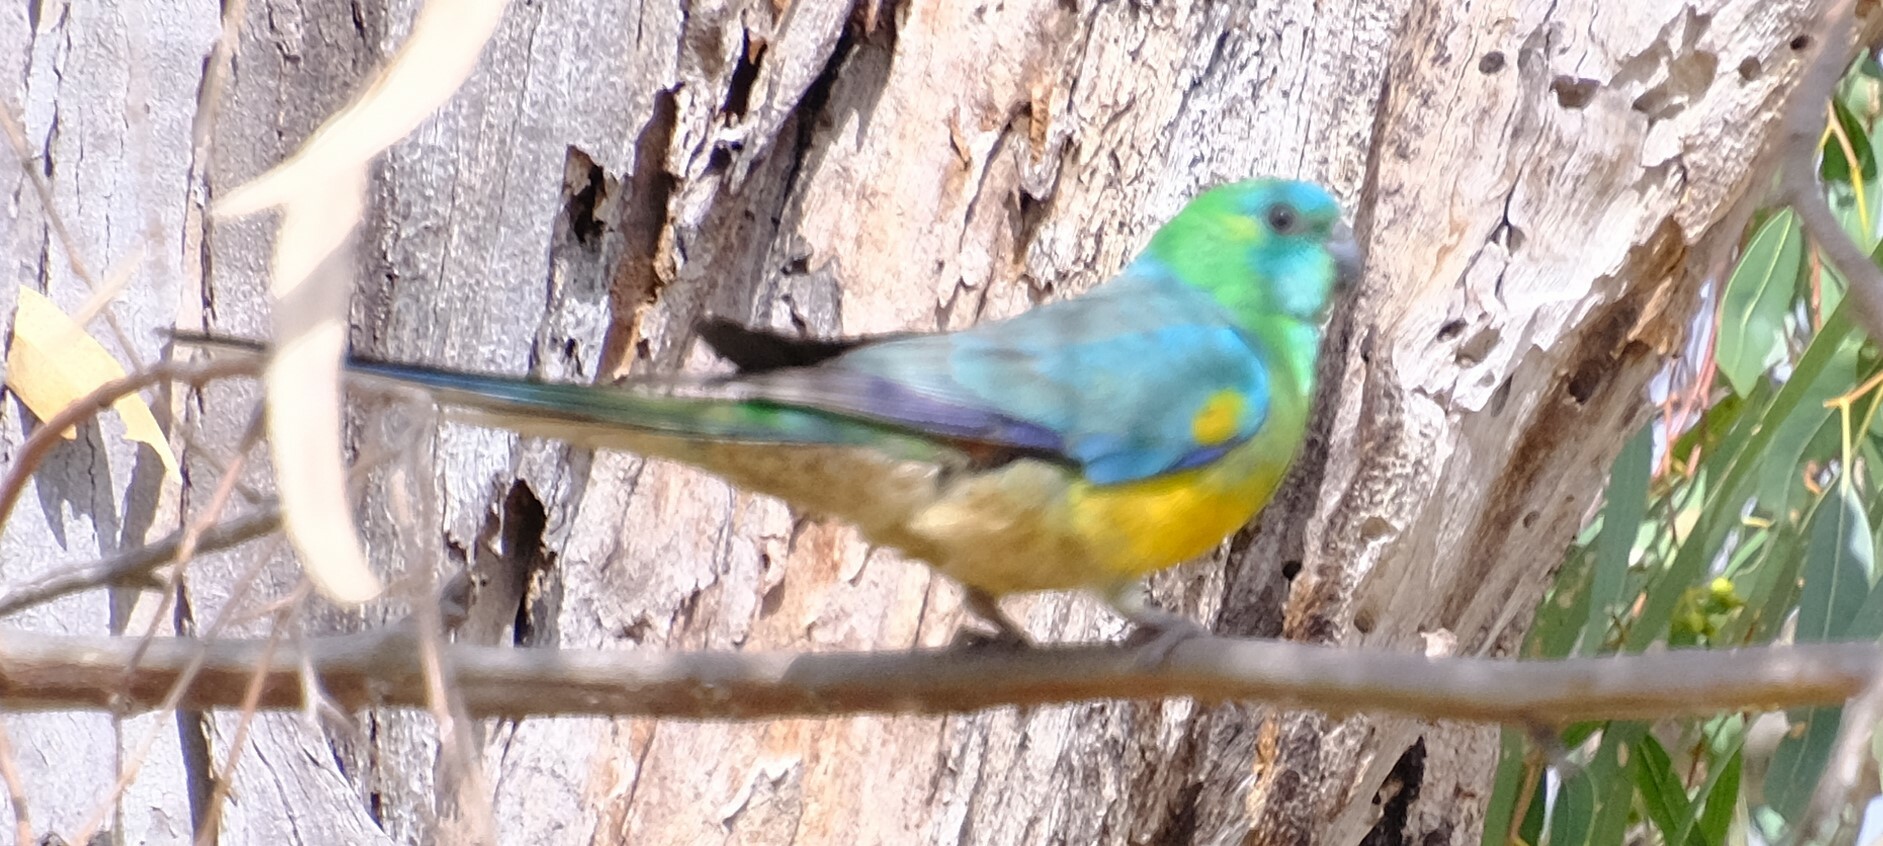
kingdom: Animalia
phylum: Chordata
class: Aves
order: Psittaciformes
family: Psittacidae
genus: Psephotus
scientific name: Psephotus haematonotus
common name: Red-rumped parrot
